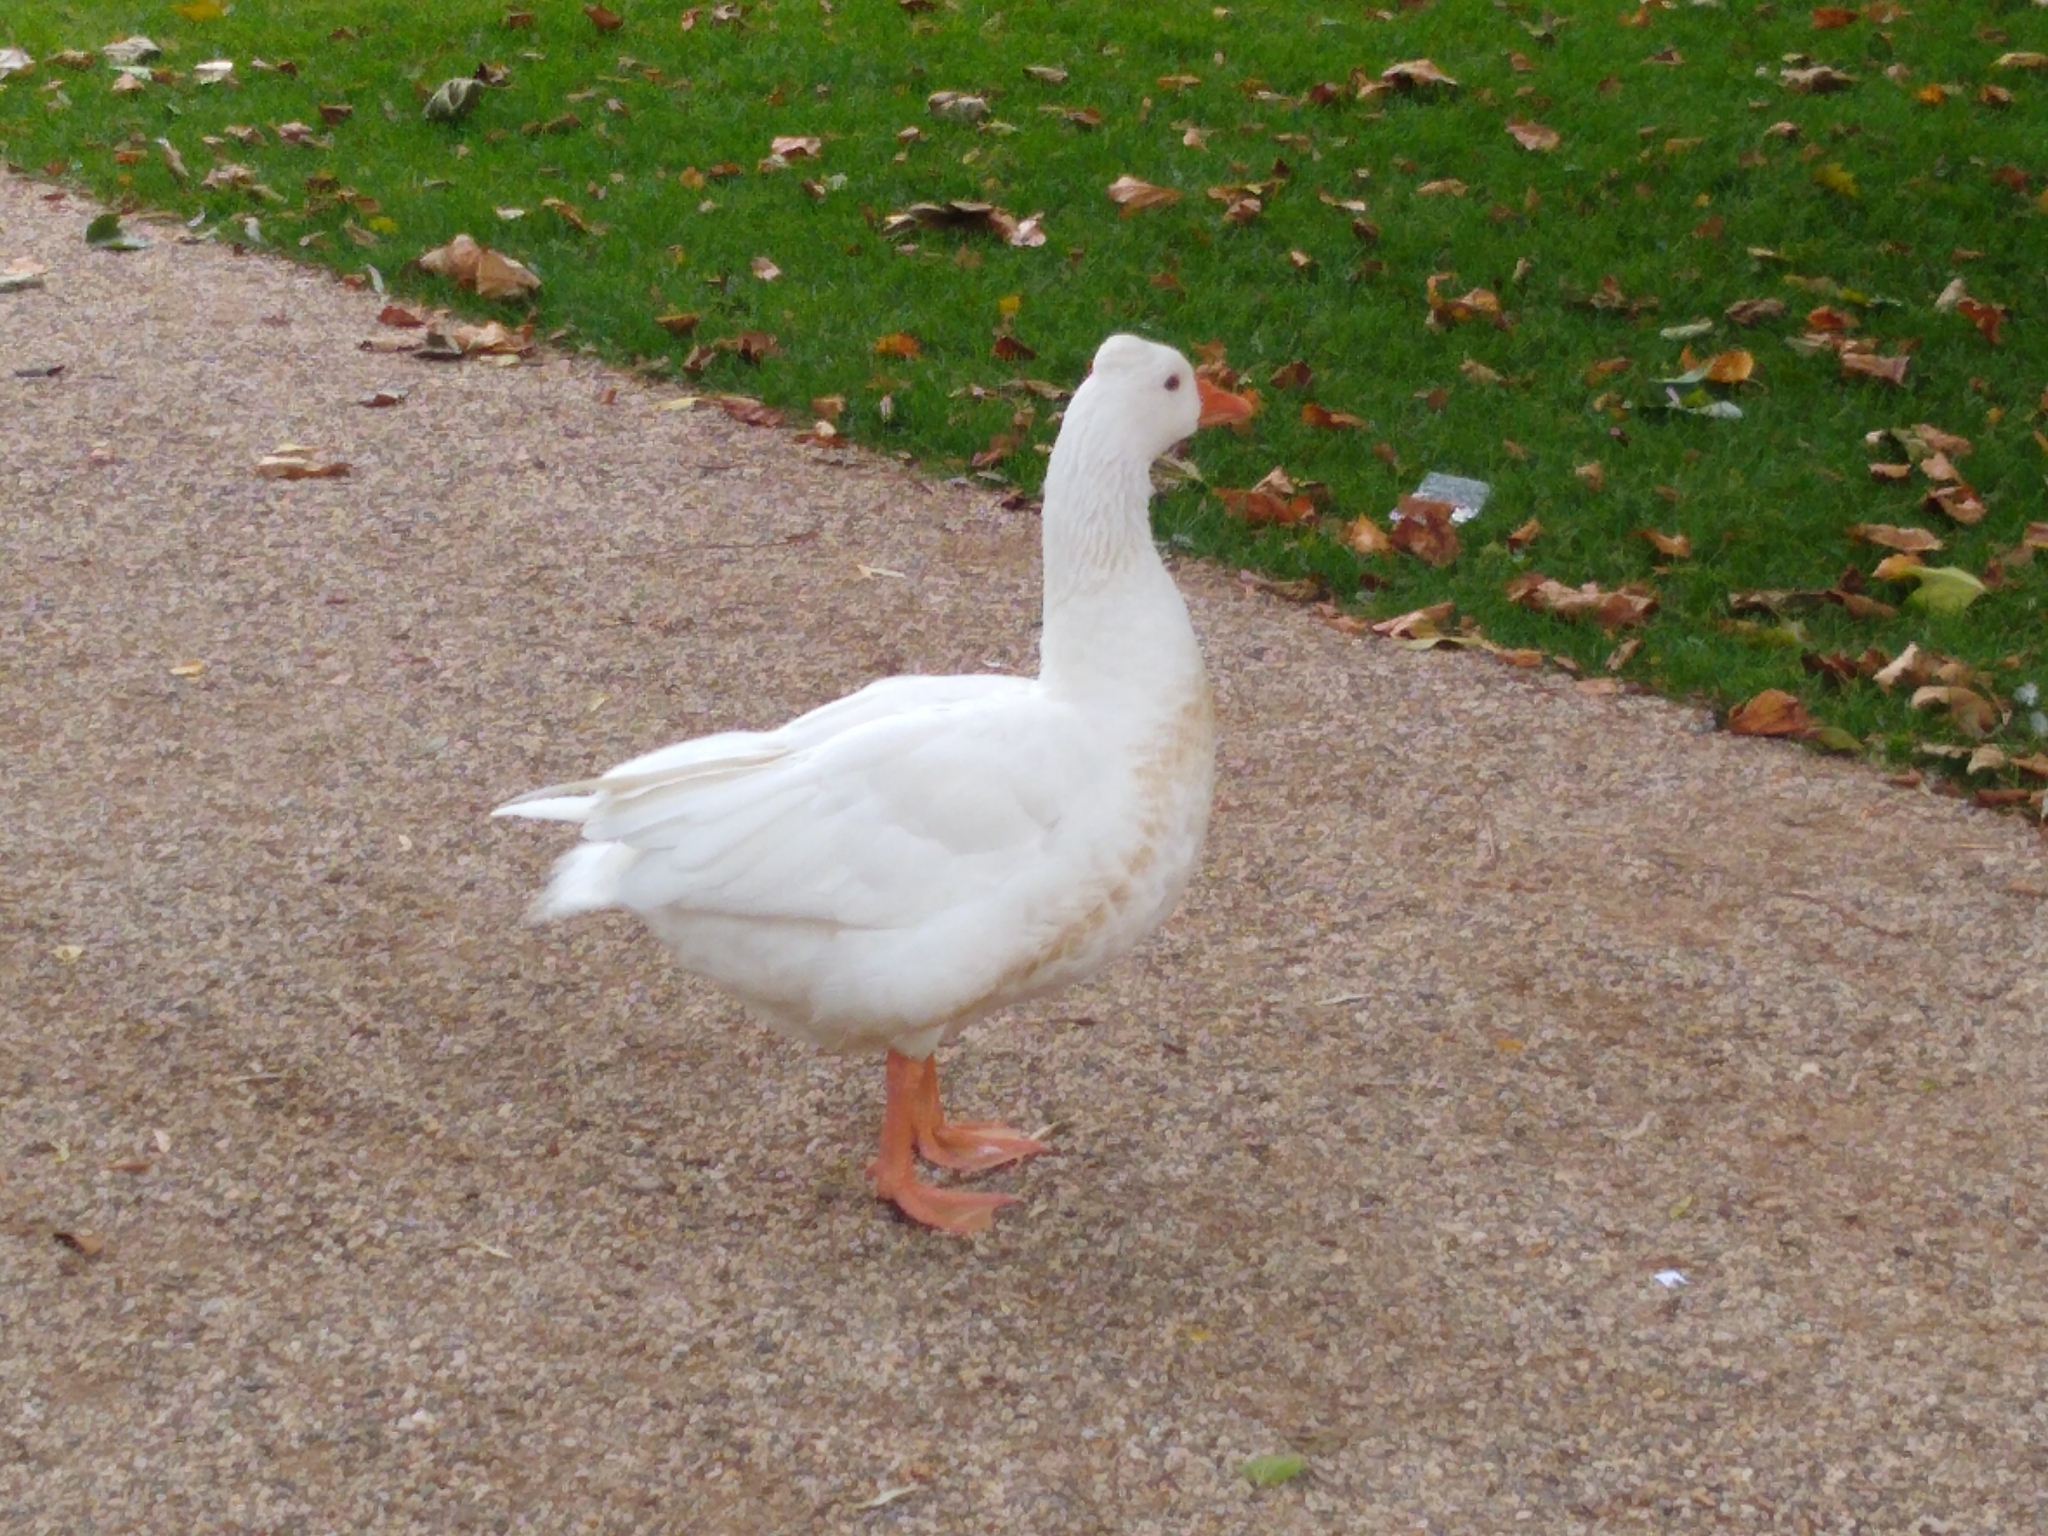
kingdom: Animalia
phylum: Chordata
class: Aves
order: Anseriformes
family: Anatidae
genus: Anser
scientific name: Anser anser
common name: Greylag goose
